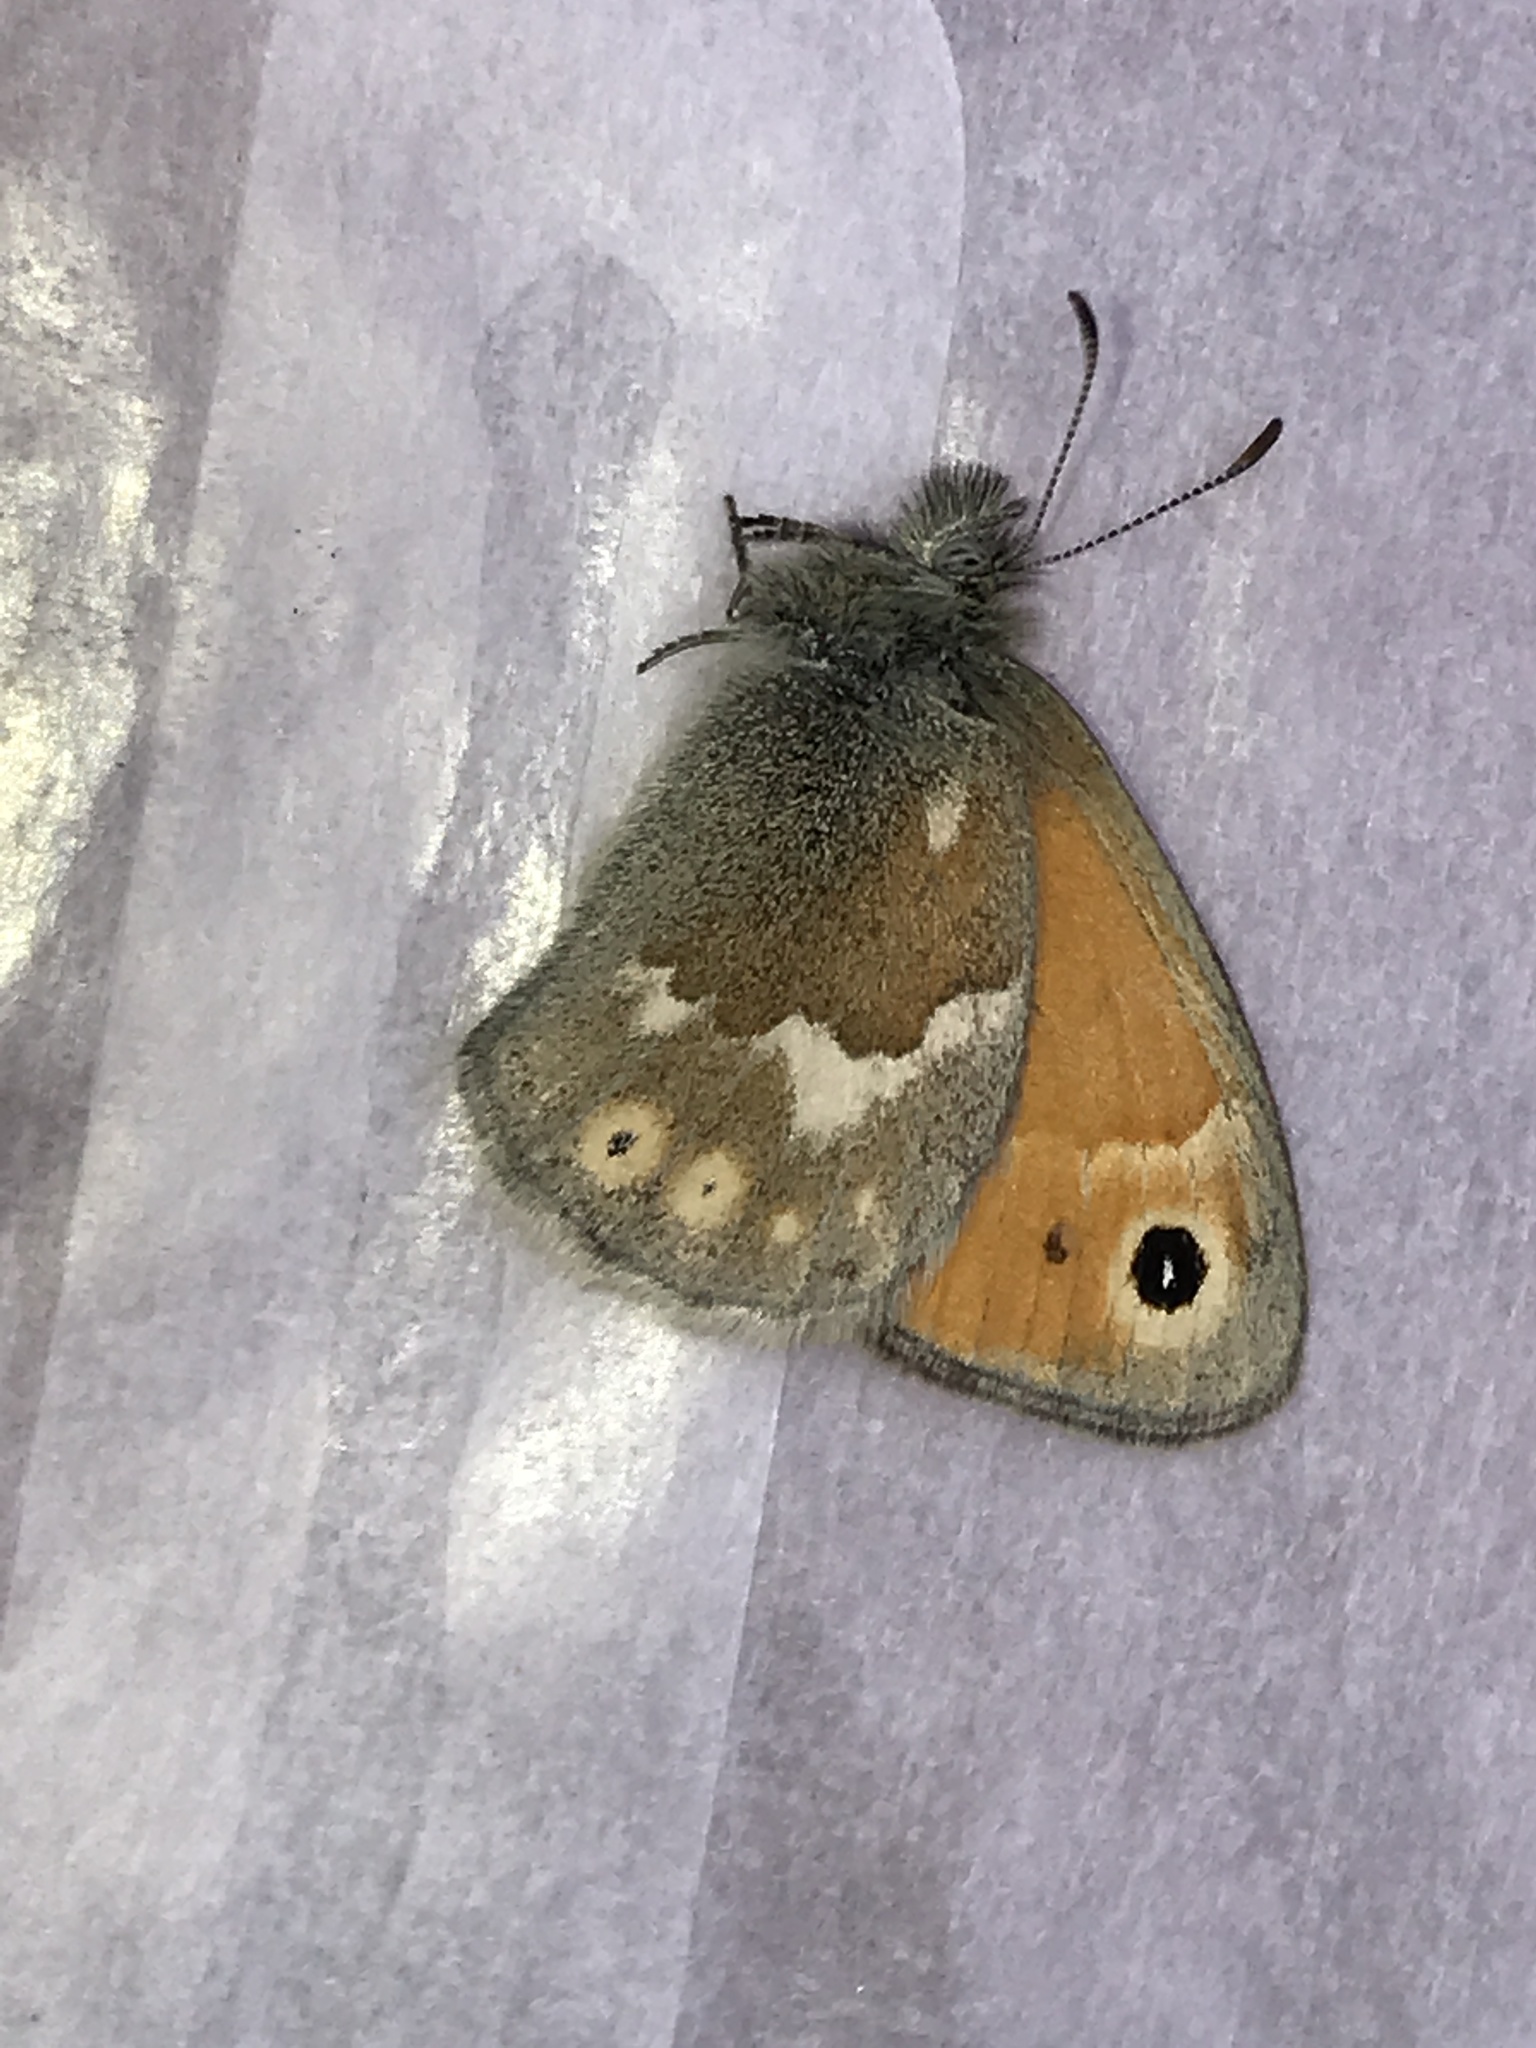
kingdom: Animalia
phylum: Arthropoda
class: Insecta
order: Lepidoptera
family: Nymphalidae
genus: Coenonympha
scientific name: Coenonympha california
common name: Common ringlet
